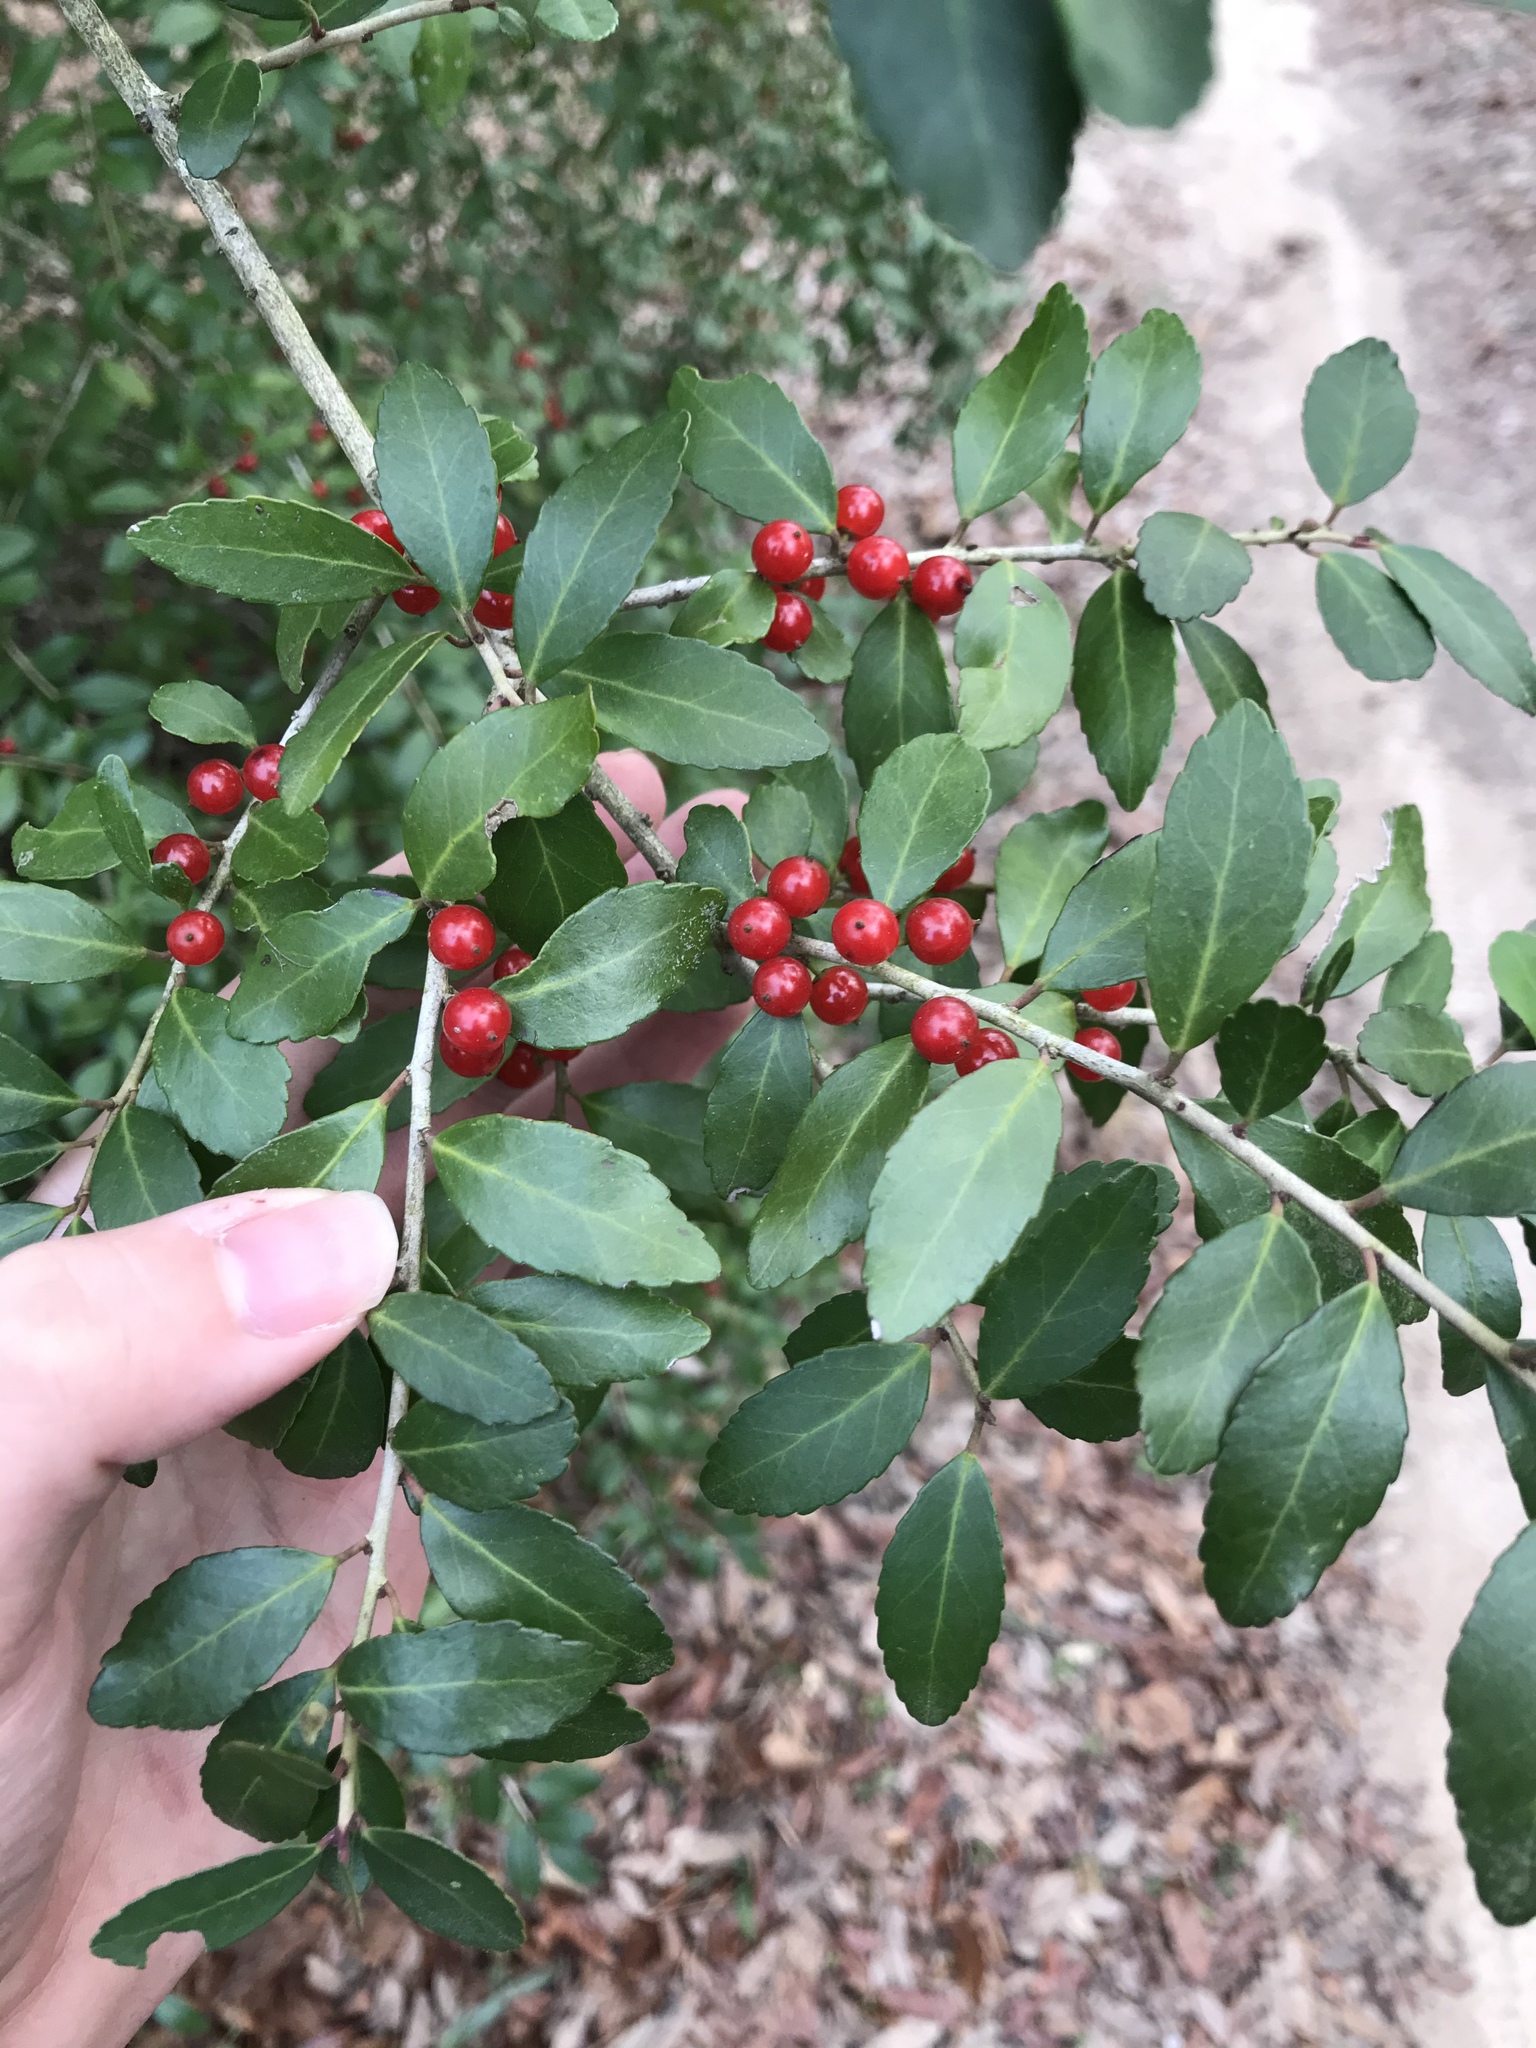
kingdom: Plantae
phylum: Tracheophyta
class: Magnoliopsida
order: Aquifoliales
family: Aquifoliaceae
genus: Ilex
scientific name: Ilex vomitoria
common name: Yaupon holly
